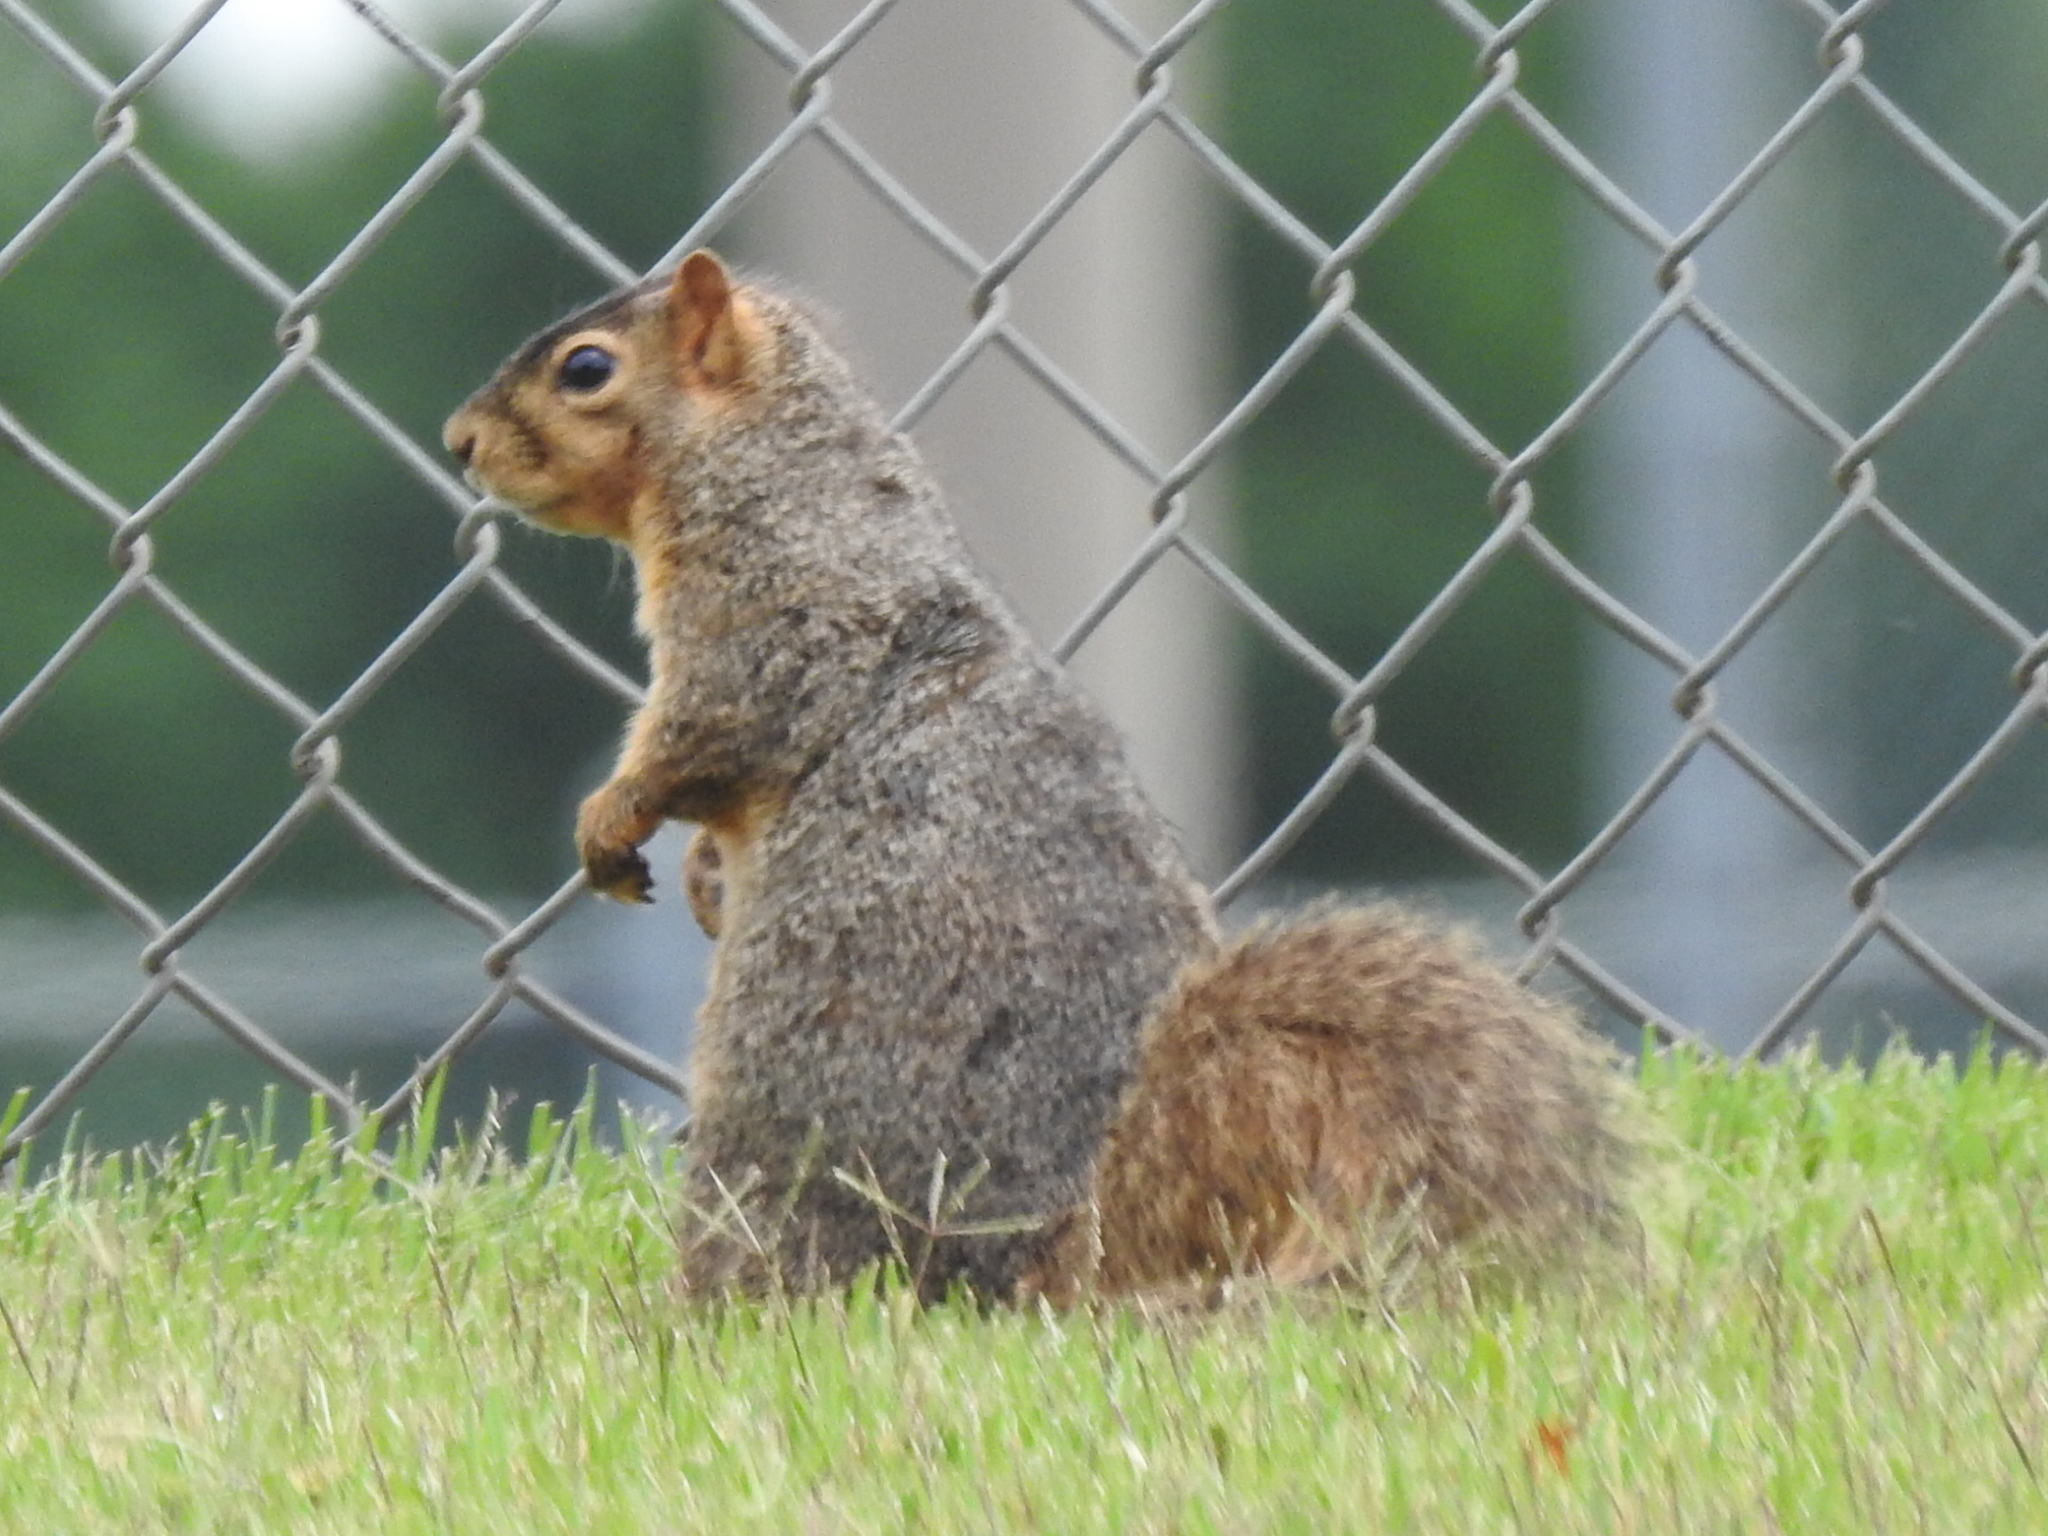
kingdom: Animalia
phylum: Chordata
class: Mammalia
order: Rodentia
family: Sciuridae
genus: Sciurus
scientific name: Sciurus niger
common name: Fox squirrel
